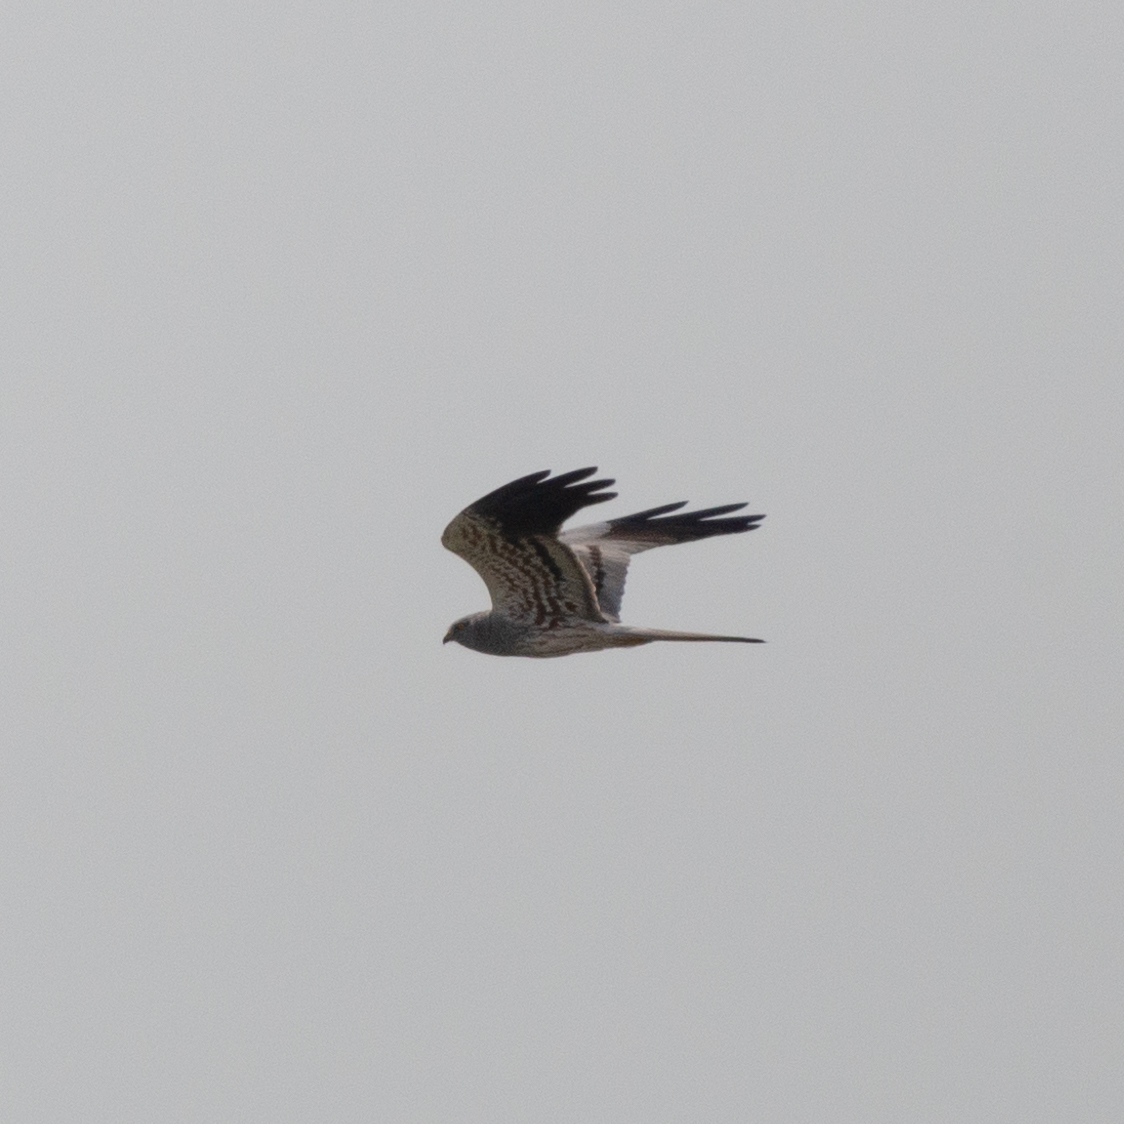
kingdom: Animalia
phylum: Chordata
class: Aves
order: Accipitriformes
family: Accipitridae
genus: Circus
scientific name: Circus pygargus
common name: Montagu's harrier
